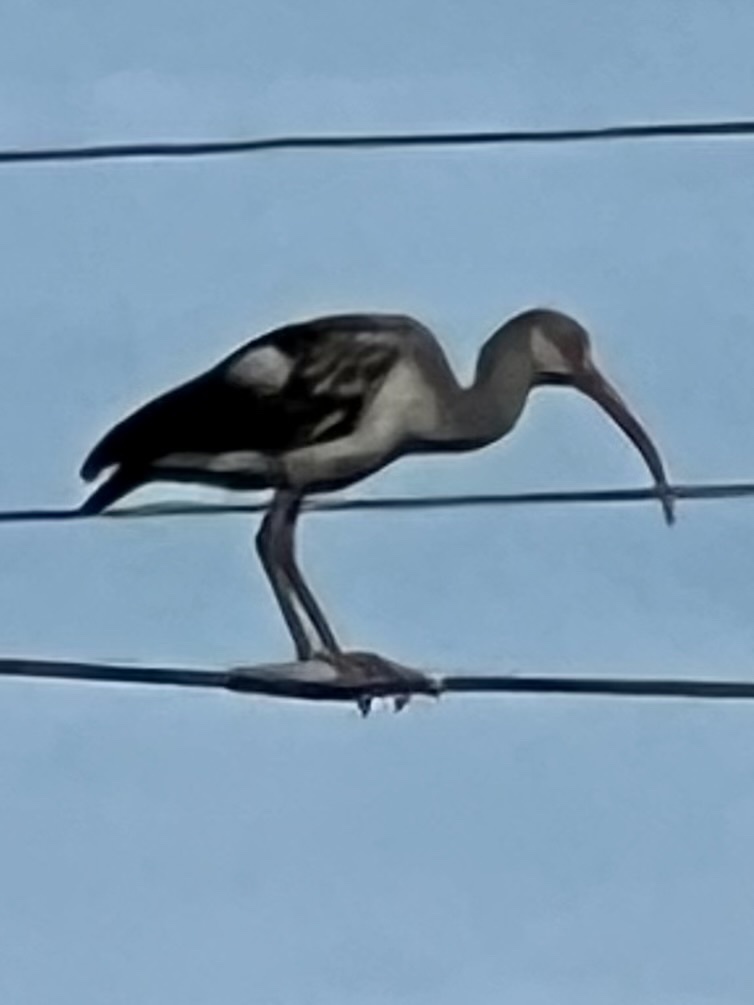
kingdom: Animalia
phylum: Chordata
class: Aves
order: Pelecaniformes
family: Threskiornithidae
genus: Eudocimus
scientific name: Eudocimus albus
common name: White ibis
